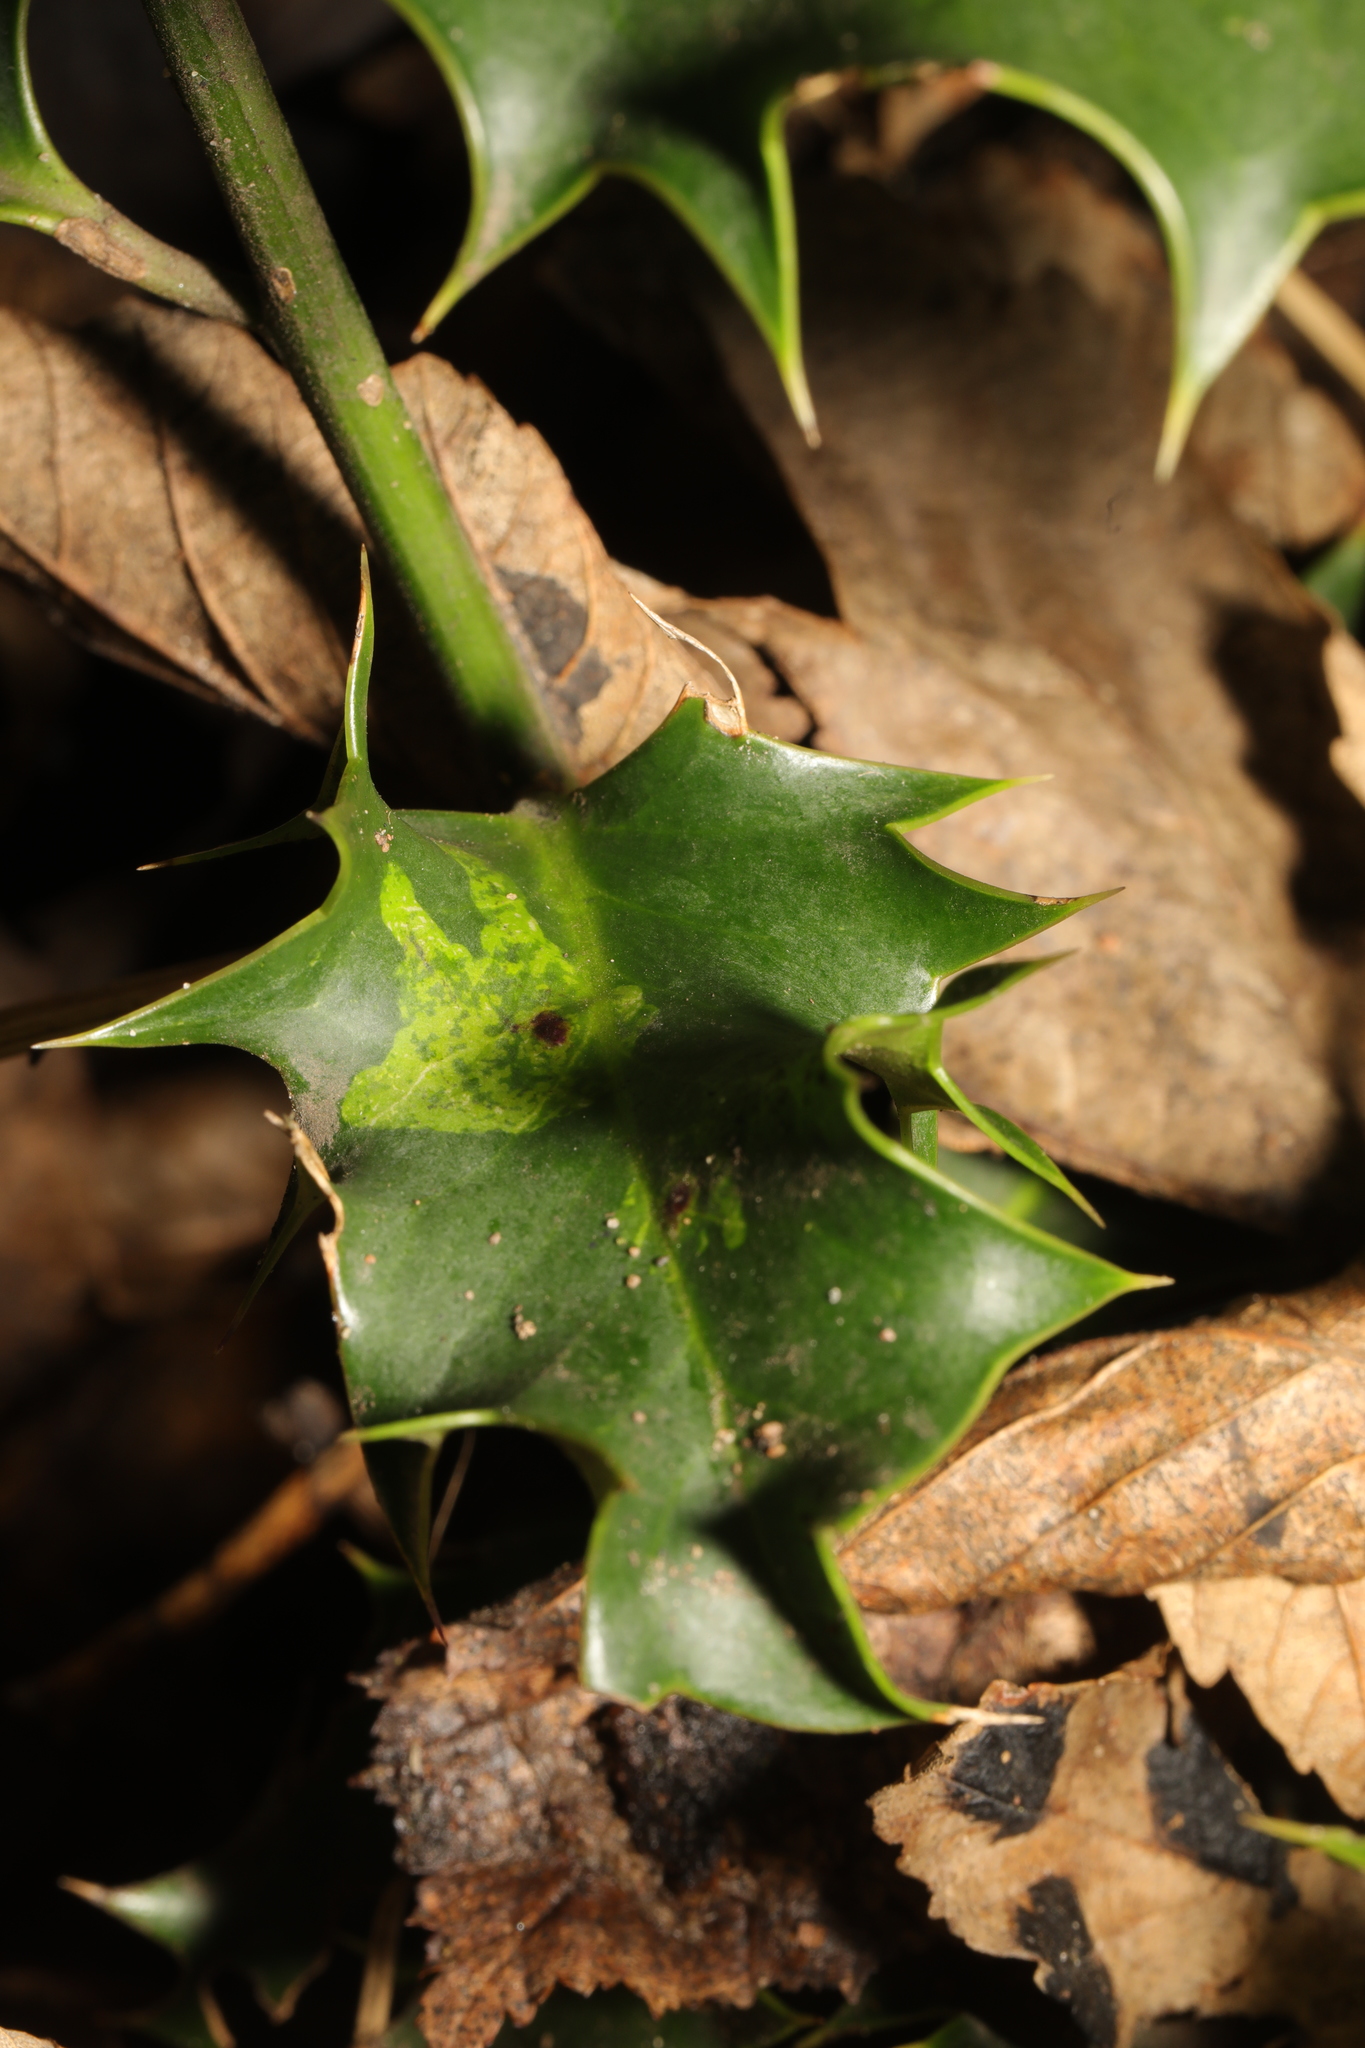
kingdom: Animalia
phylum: Arthropoda
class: Insecta
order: Diptera
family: Agromyzidae
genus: Phytomyza
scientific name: Phytomyza ilicis
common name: Holly leafminer
